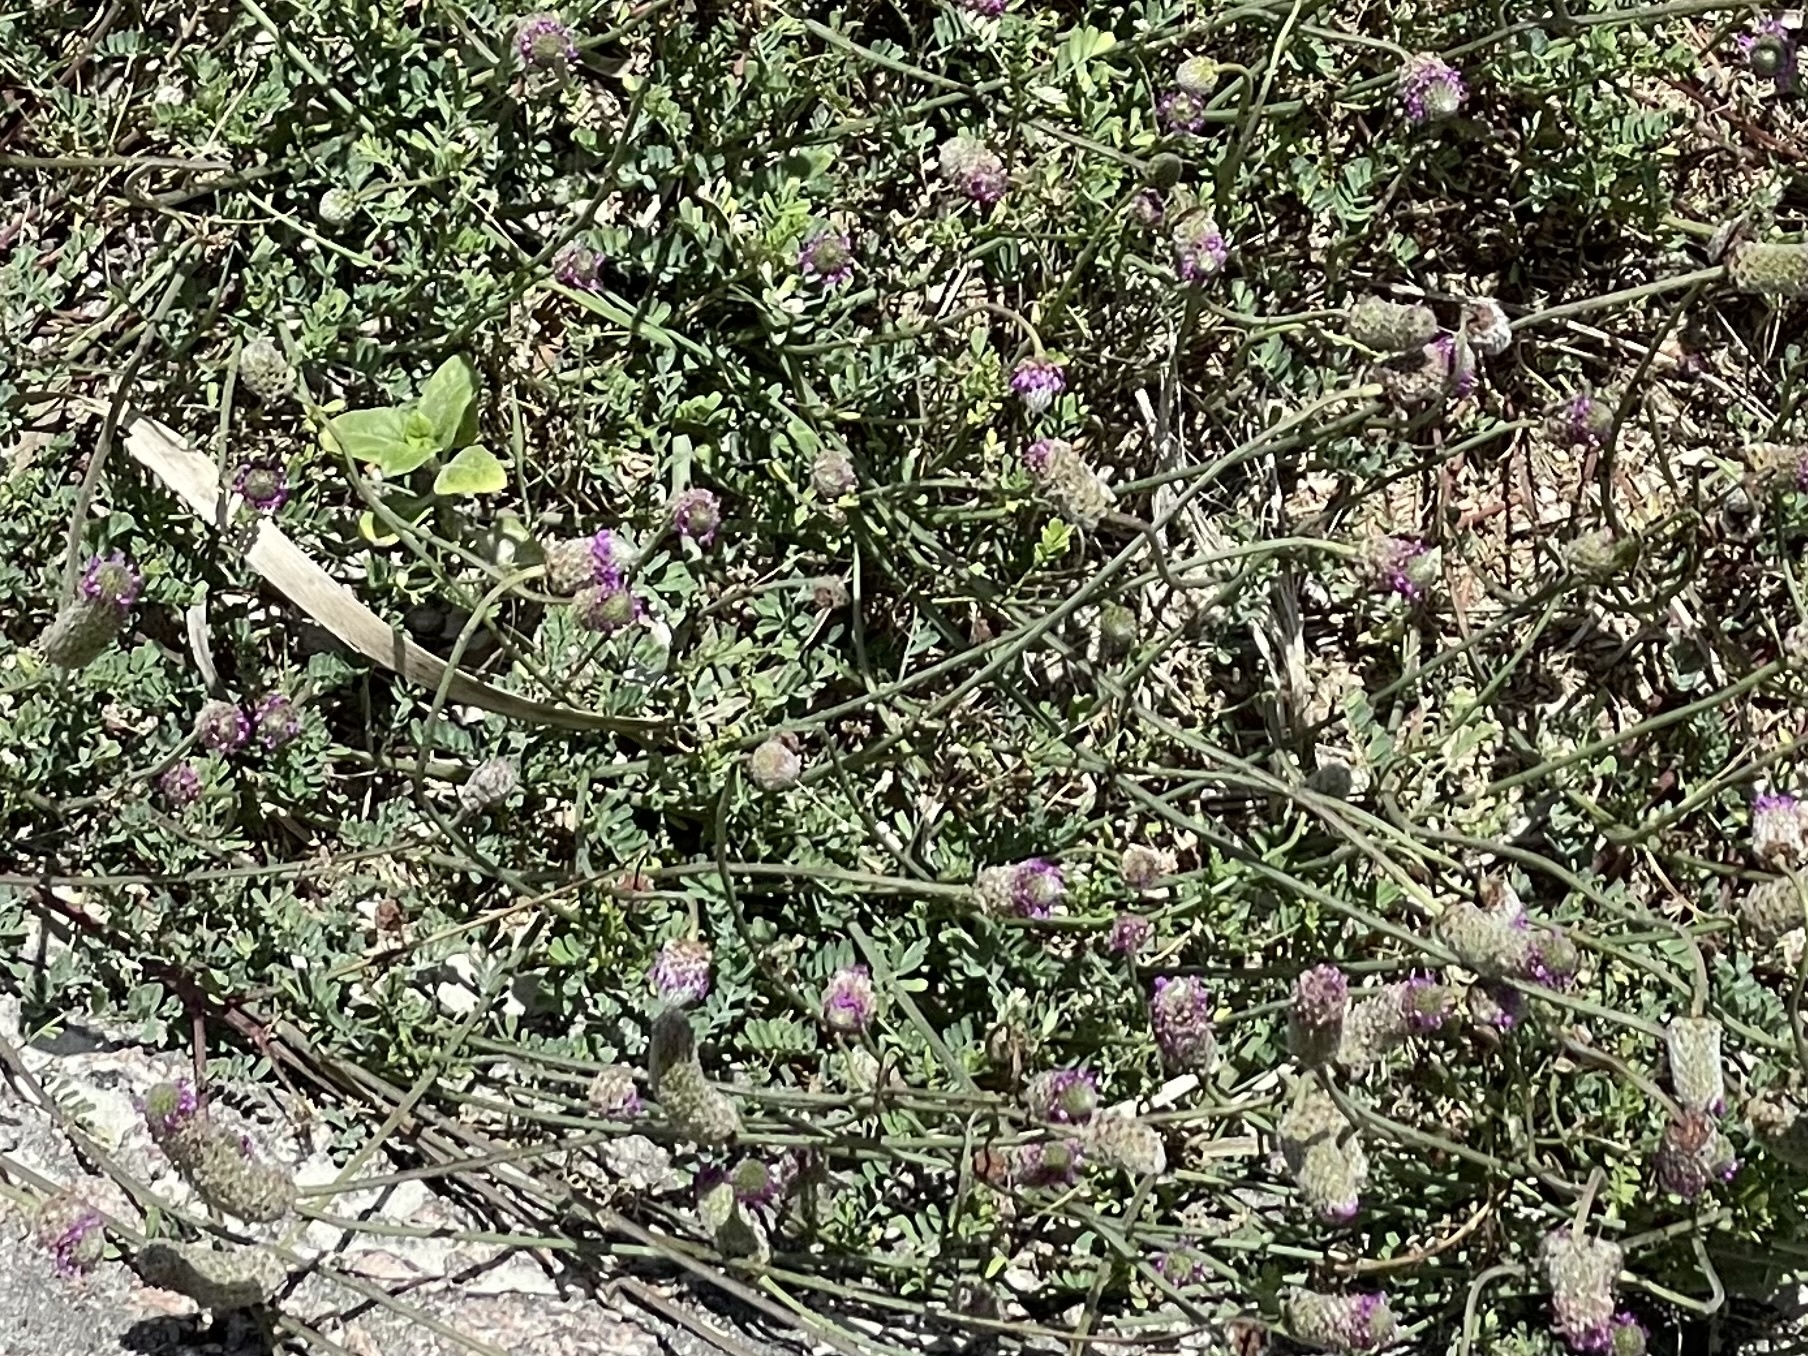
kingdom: Plantae
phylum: Tracheophyta
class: Magnoliopsida
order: Fabales
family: Fabaceae
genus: Dalea
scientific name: Dalea emarginata
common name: Wedgeleaf prairie clover
